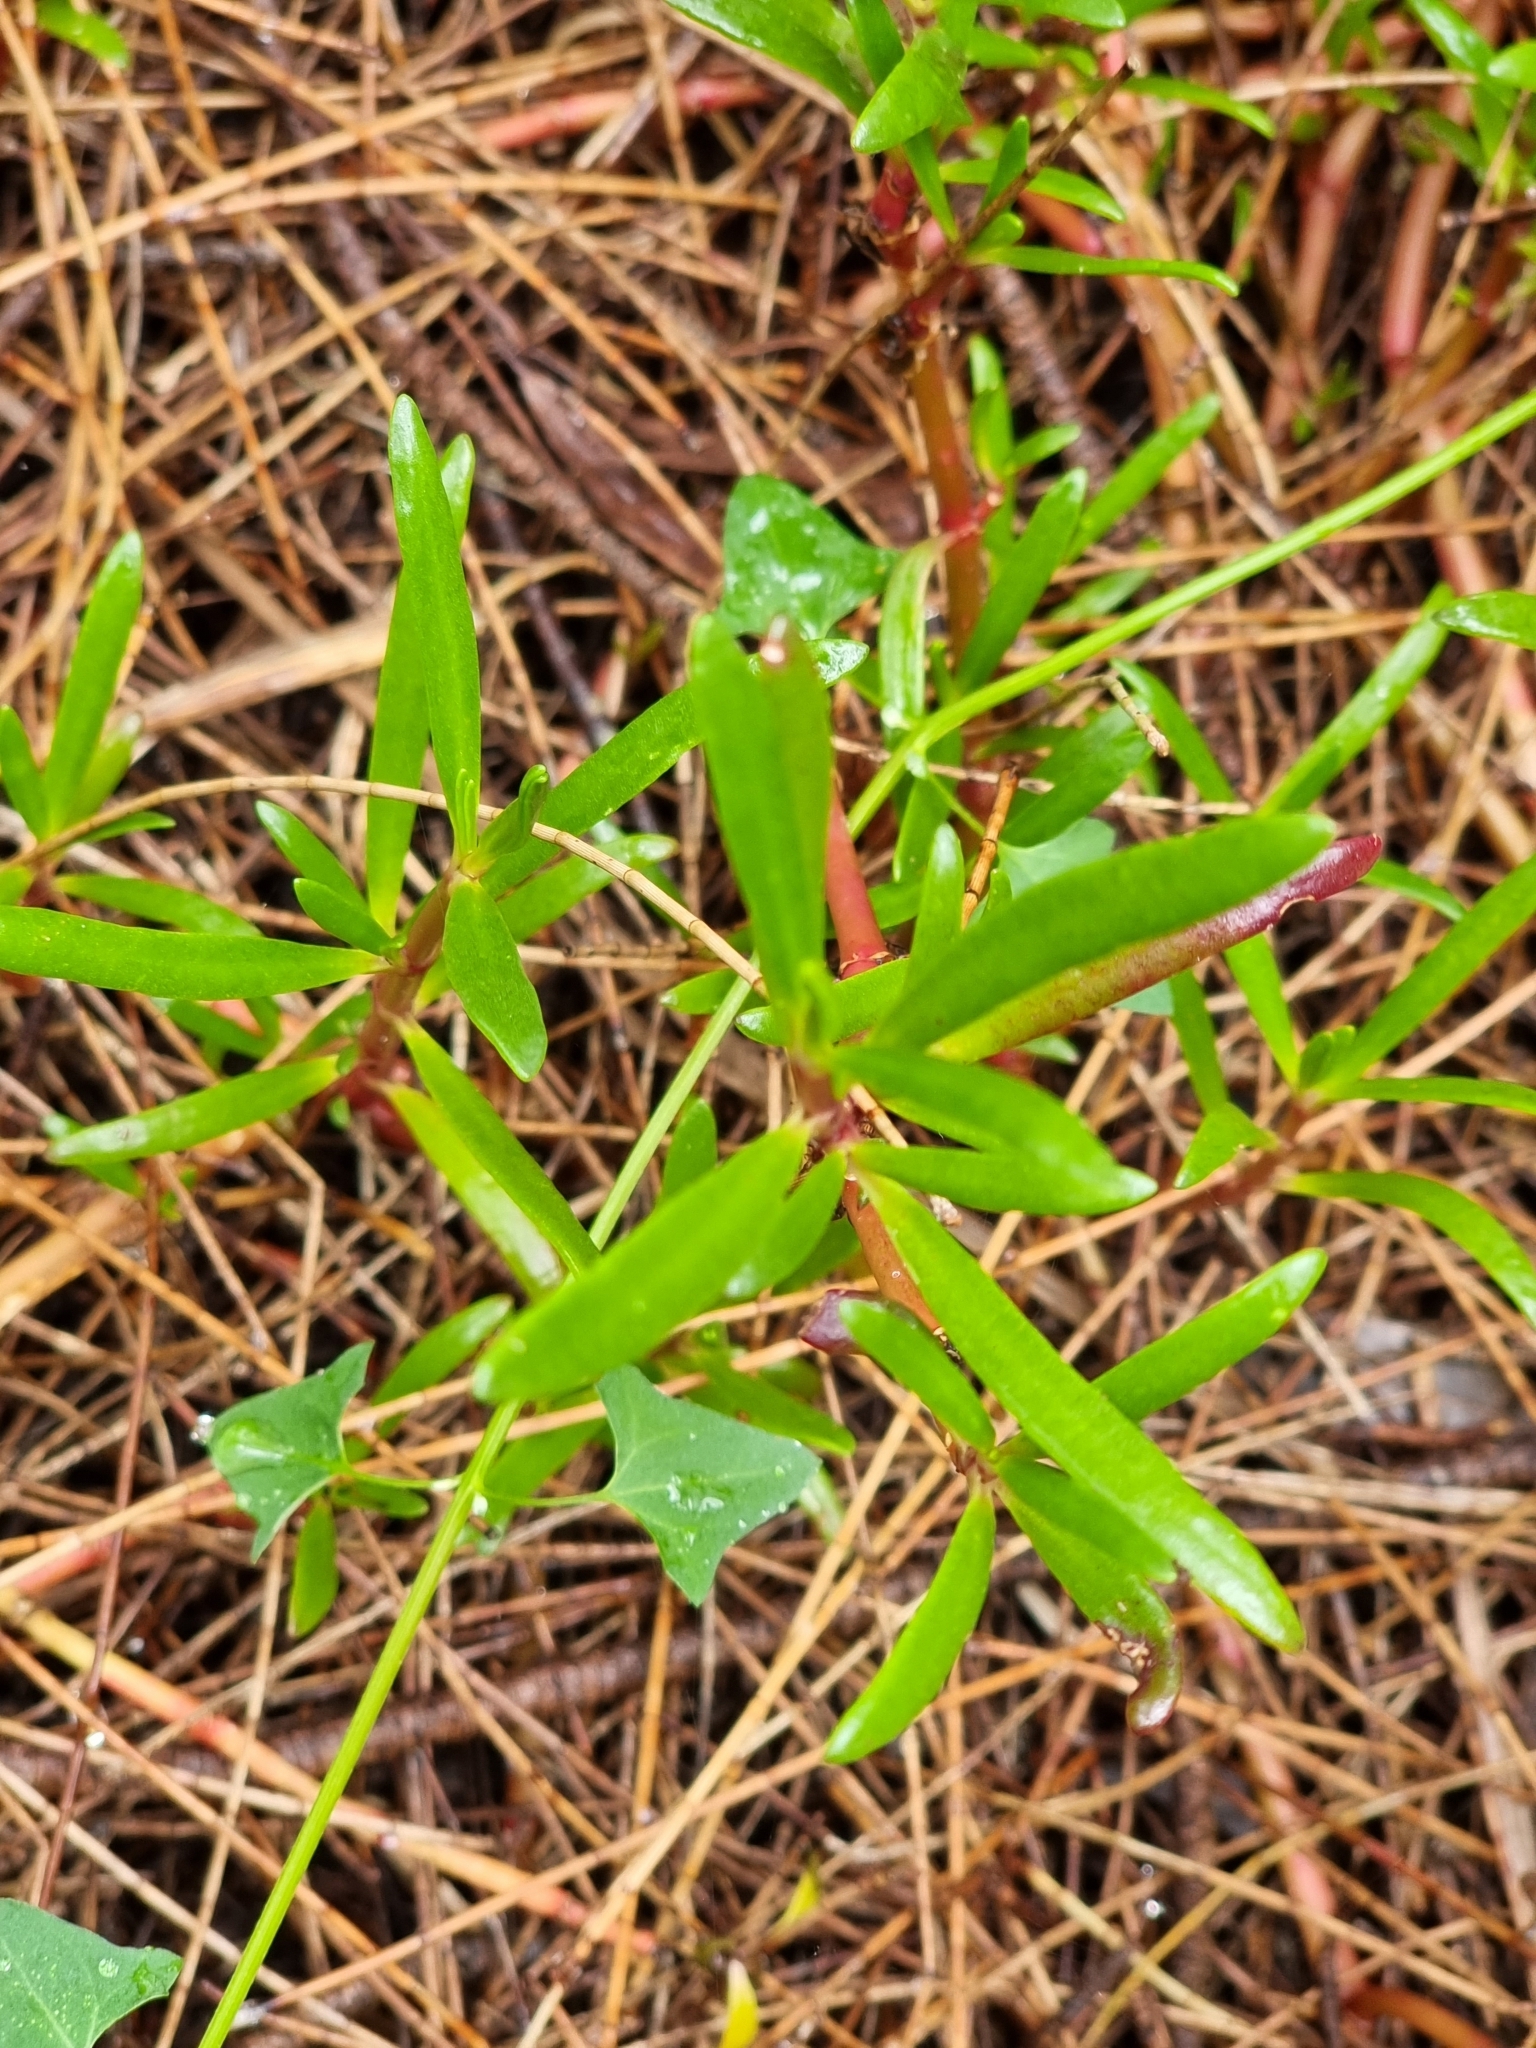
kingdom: Plantae
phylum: Tracheophyta
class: Magnoliopsida
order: Caryophyllales
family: Aizoaceae
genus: Sesuvium
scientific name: Sesuvium portulacastrum
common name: Sea-purslane
